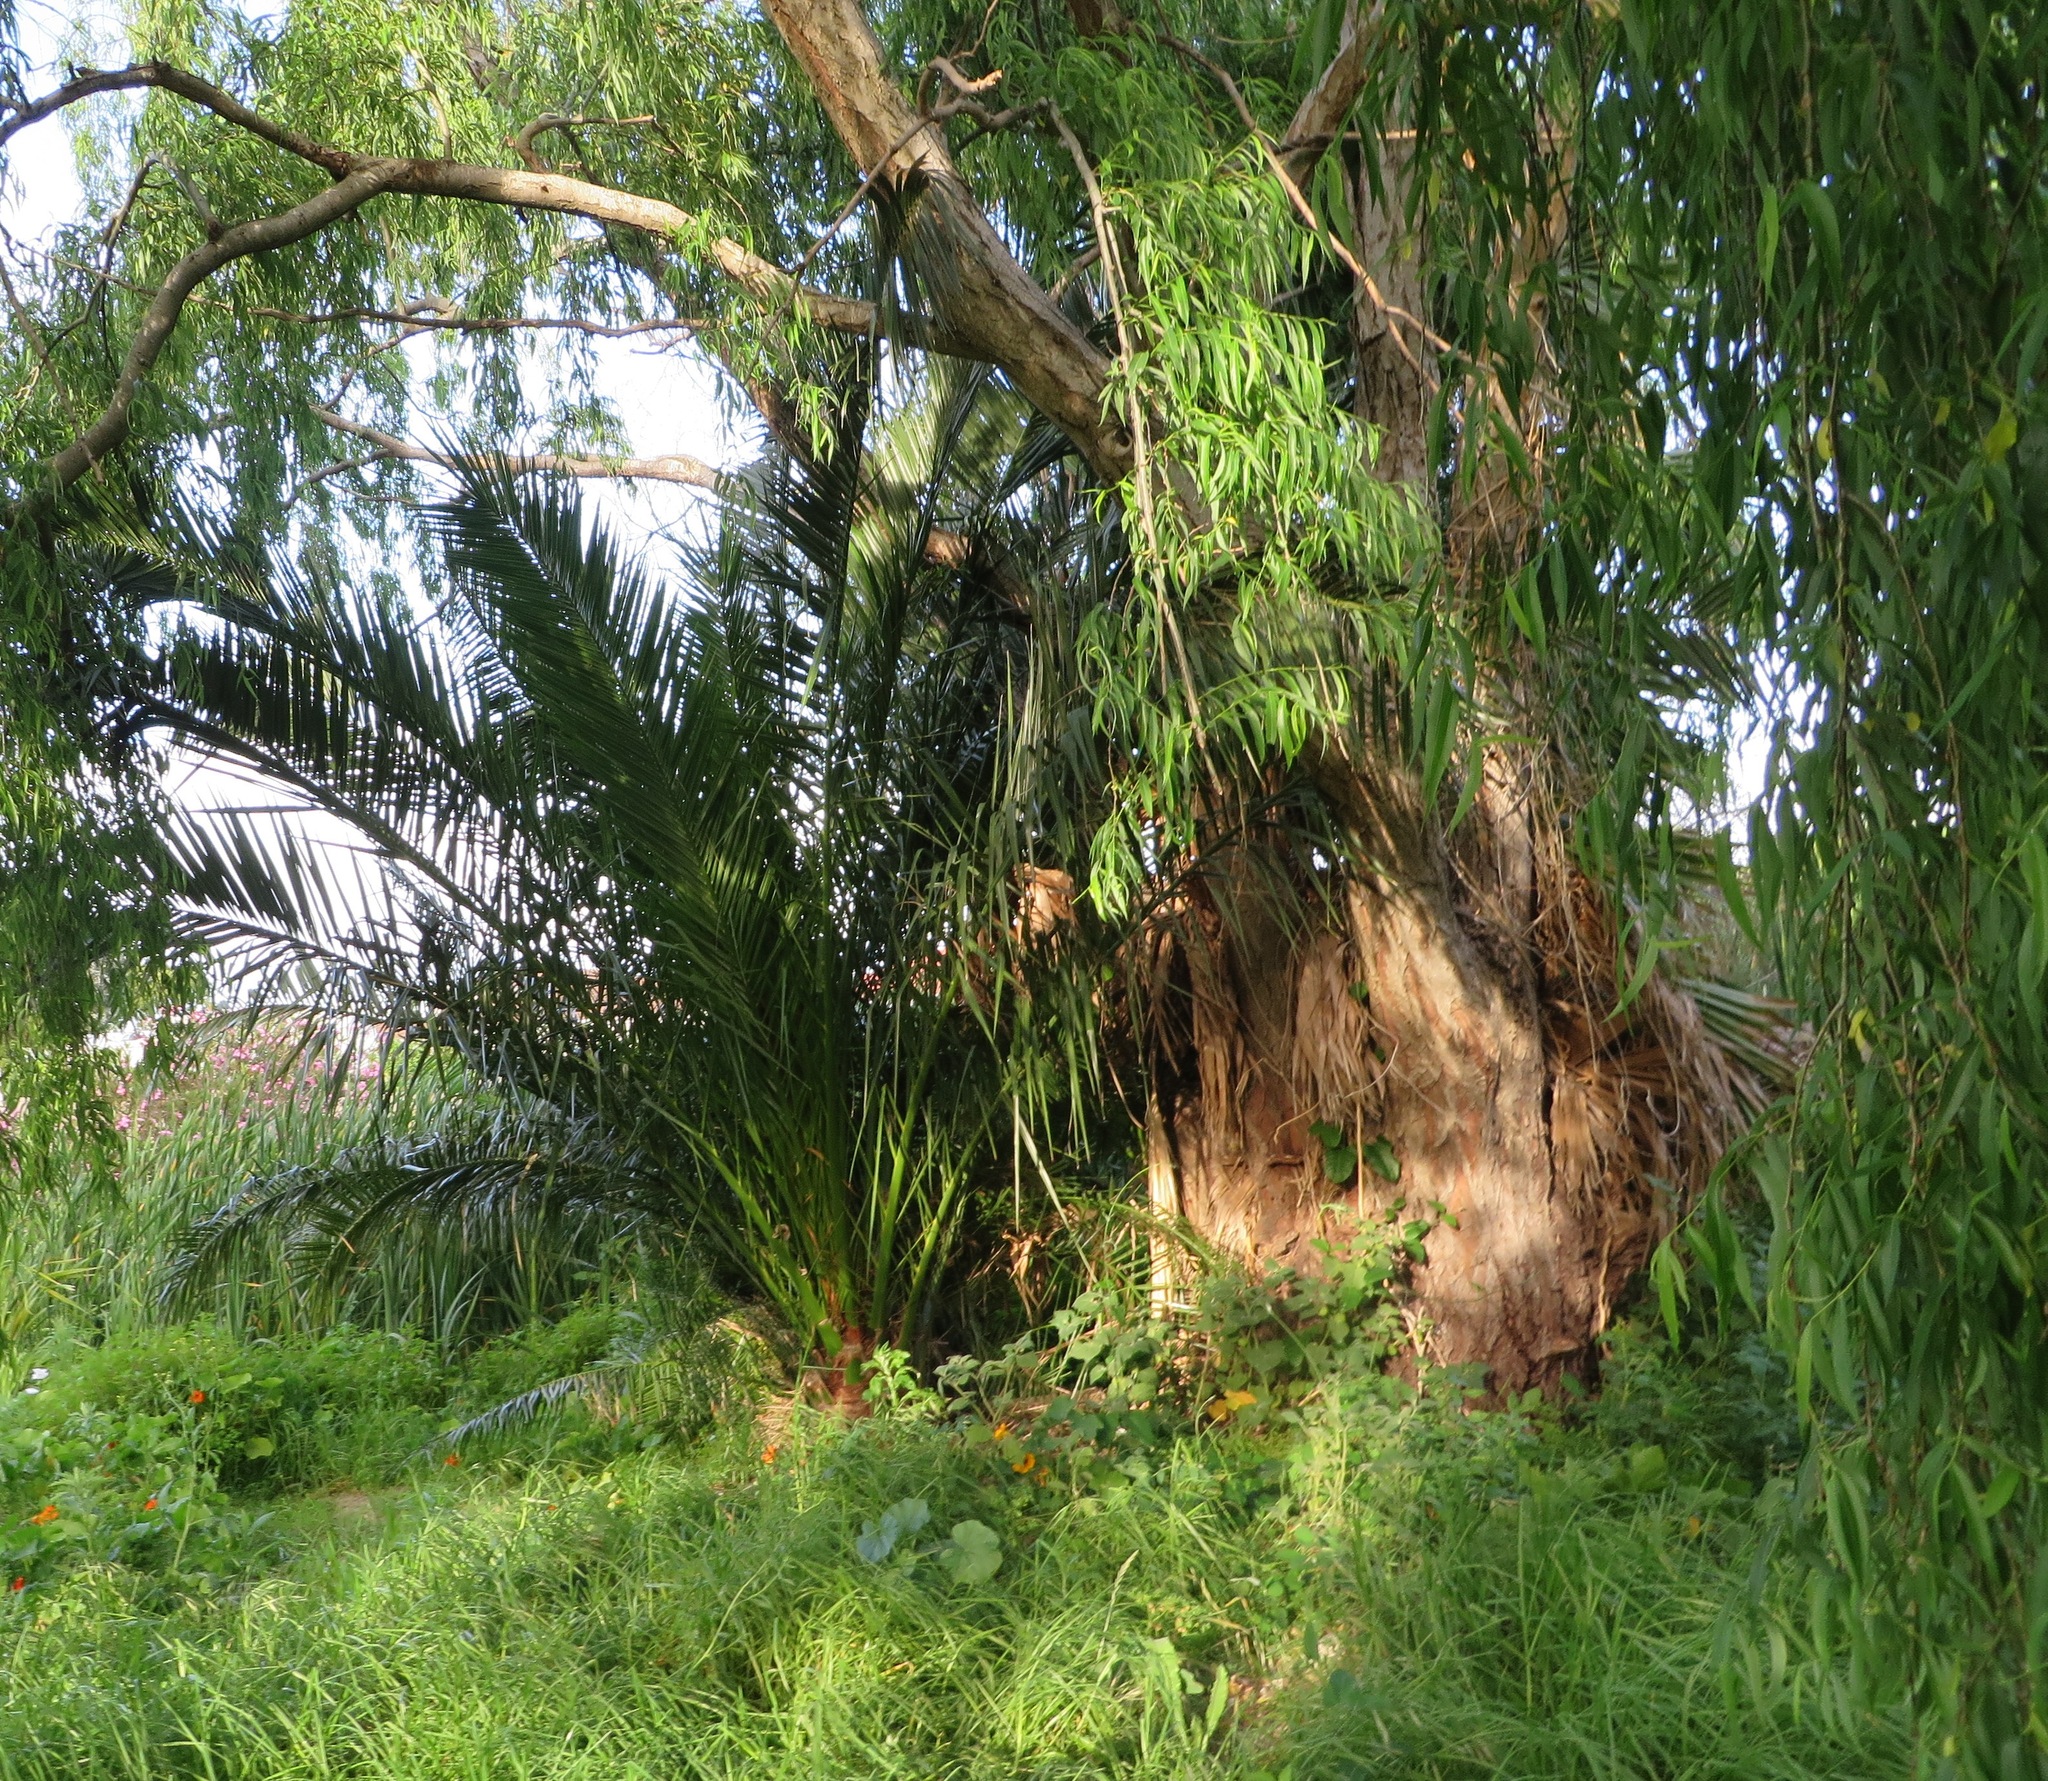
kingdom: Plantae
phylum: Tracheophyta
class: Liliopsida
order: Arecales
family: Arecaceae
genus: Phoenix
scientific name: Phoenix canariensis
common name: Canary island date palm
